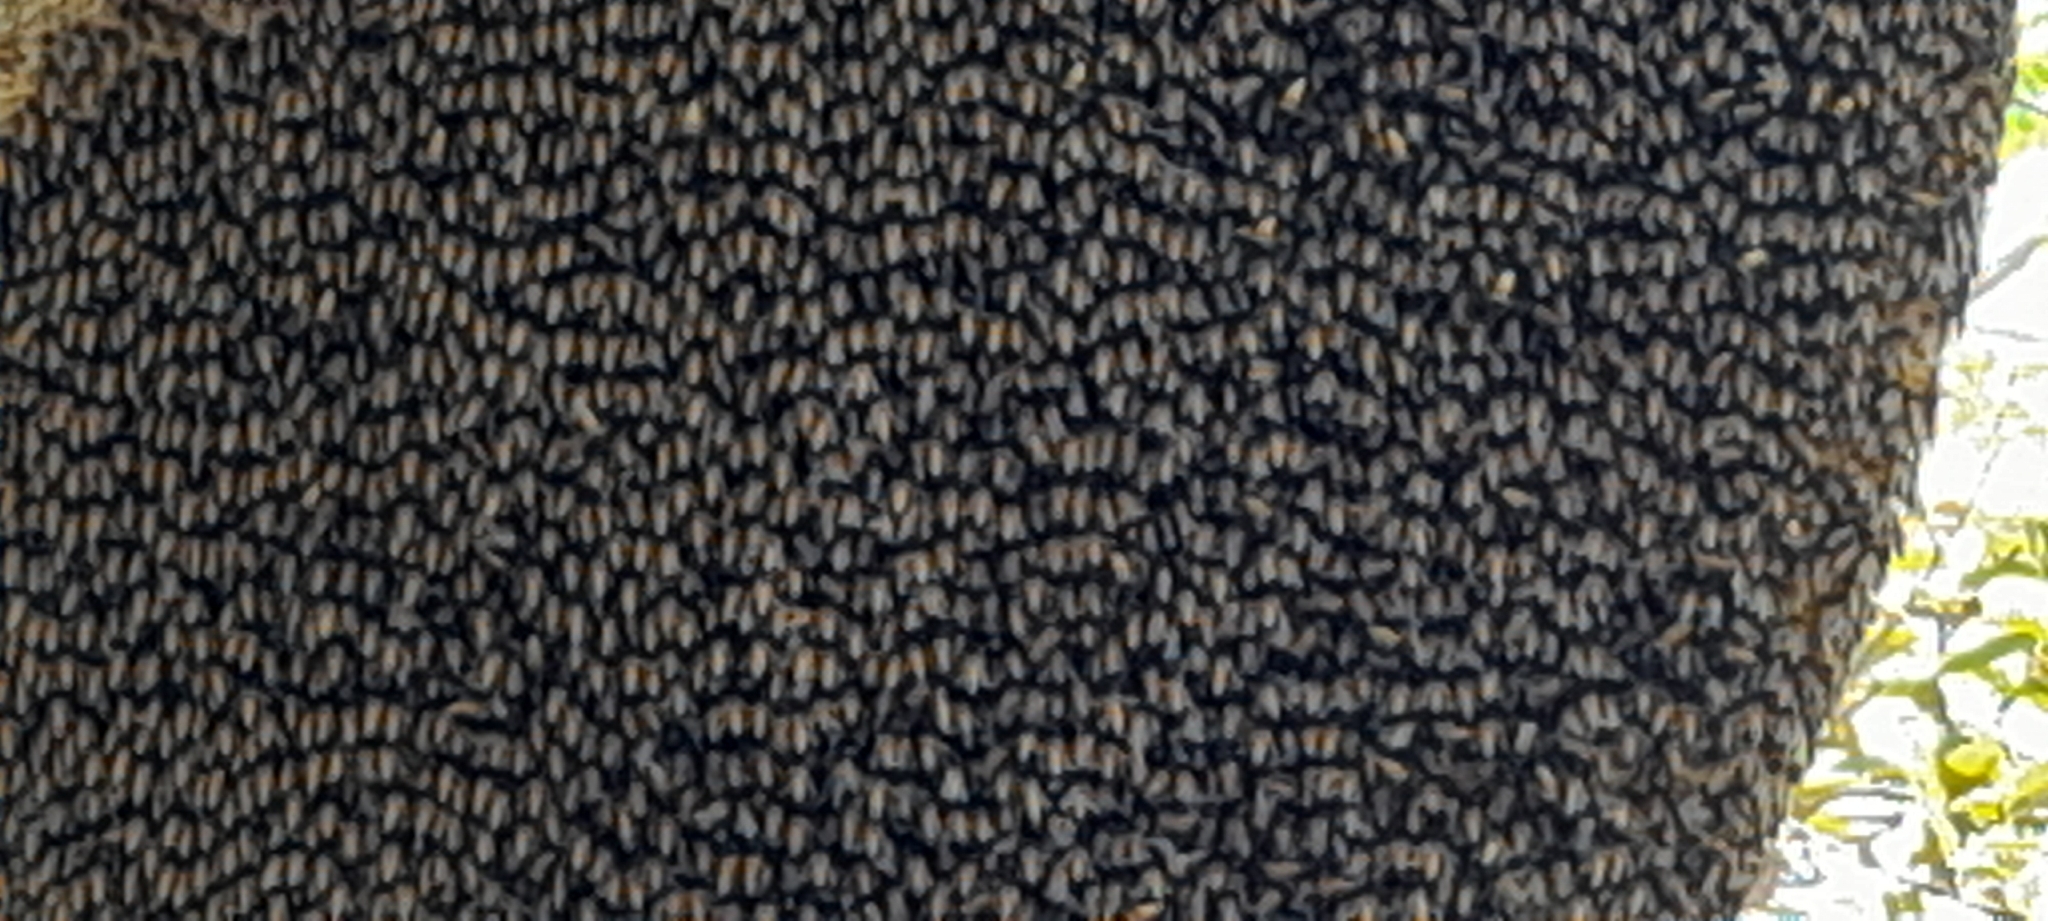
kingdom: Animalia
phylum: Arthropoda
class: Insecta
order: Hymenoptera
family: Apidae
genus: Apis
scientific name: Apis dorsata
